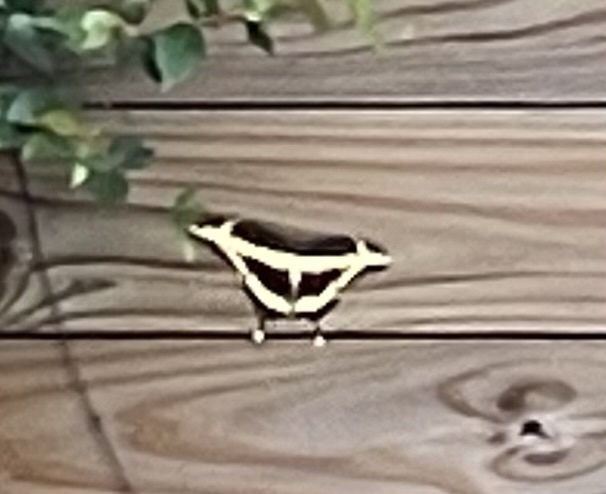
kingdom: Animalia
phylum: Arthropoda
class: Insecta
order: Lepidoptera
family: Papilionidae
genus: Papilio
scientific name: Papilio cresphontes
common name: Giant swallowtail
